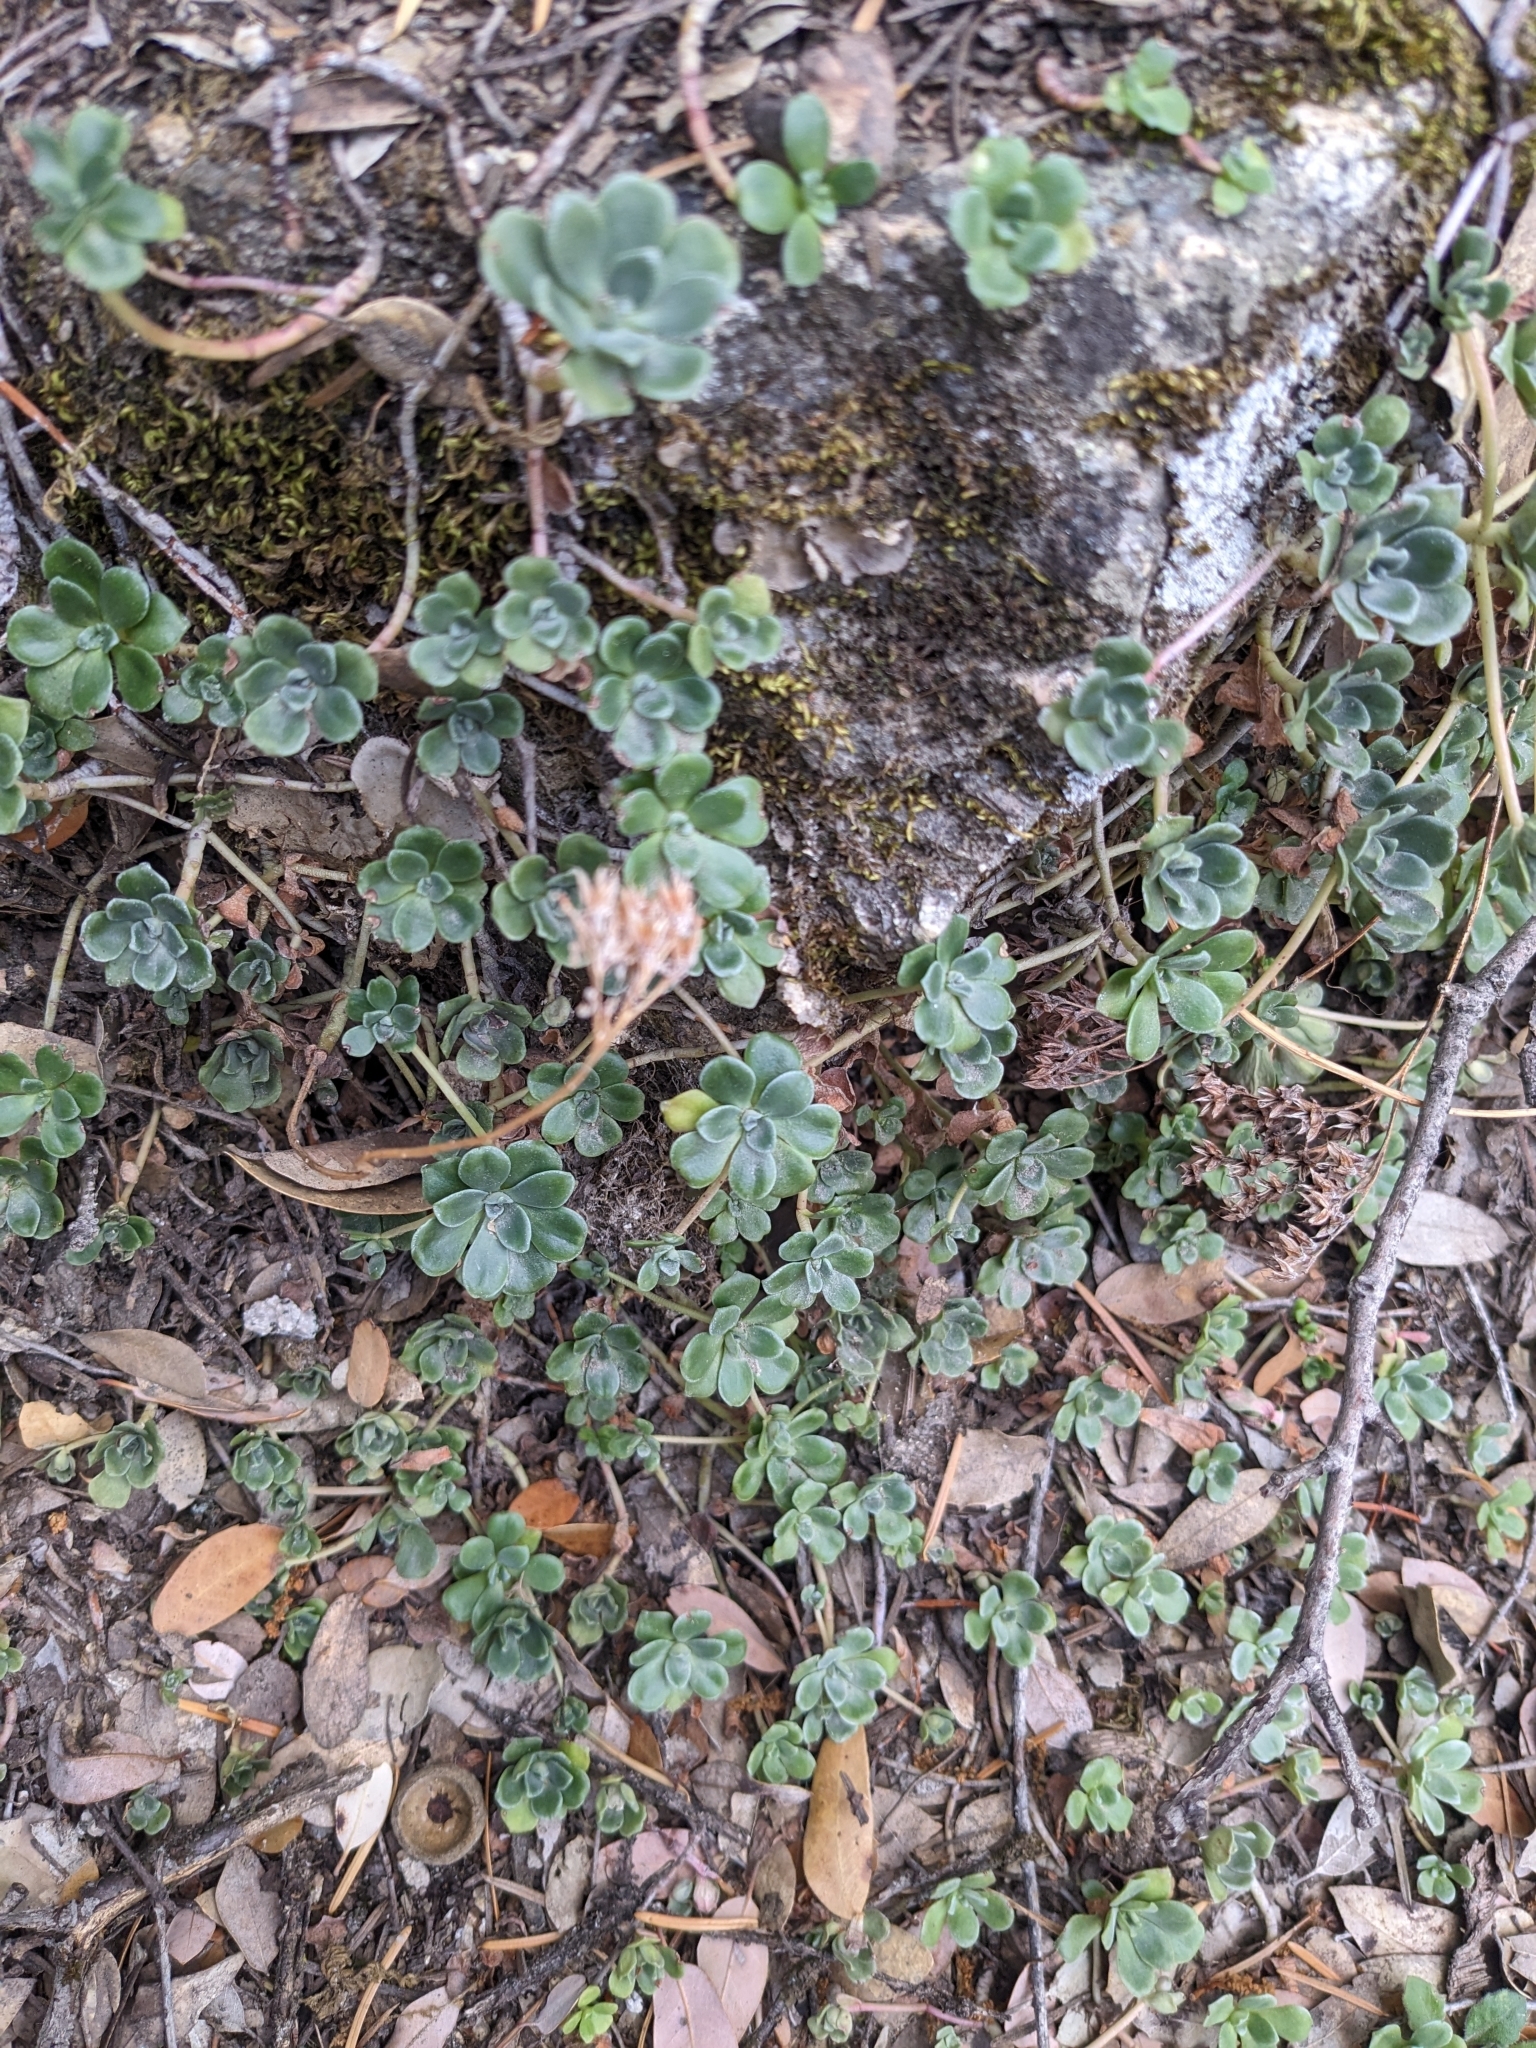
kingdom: Plantae
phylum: Tracheophyta
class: Magnoliopsida
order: Saxifragales
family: Crassulaceae
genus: Sedum
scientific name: Sedum spathulifolium
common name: Colorado stonecrop
